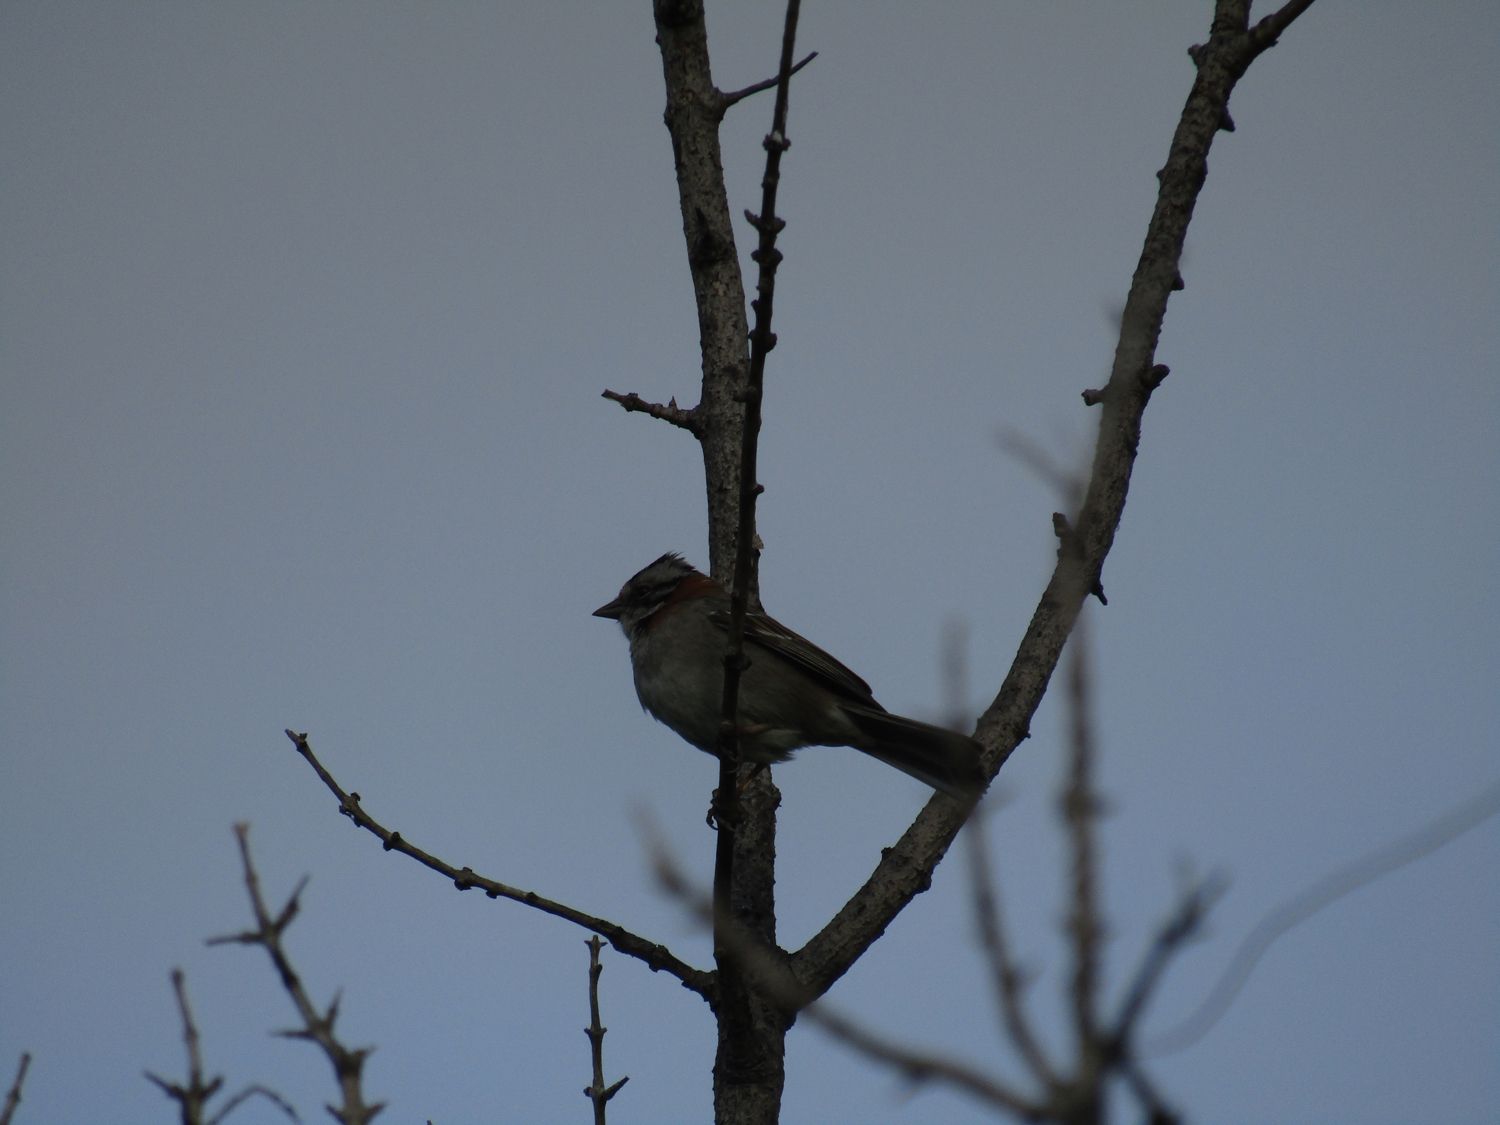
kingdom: Animalia
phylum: Chordata
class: Aves
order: Passeriformes
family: Passerellidae
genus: Zonotrichia
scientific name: Zonotrichia capensis
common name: Rufous-collared sparrow
